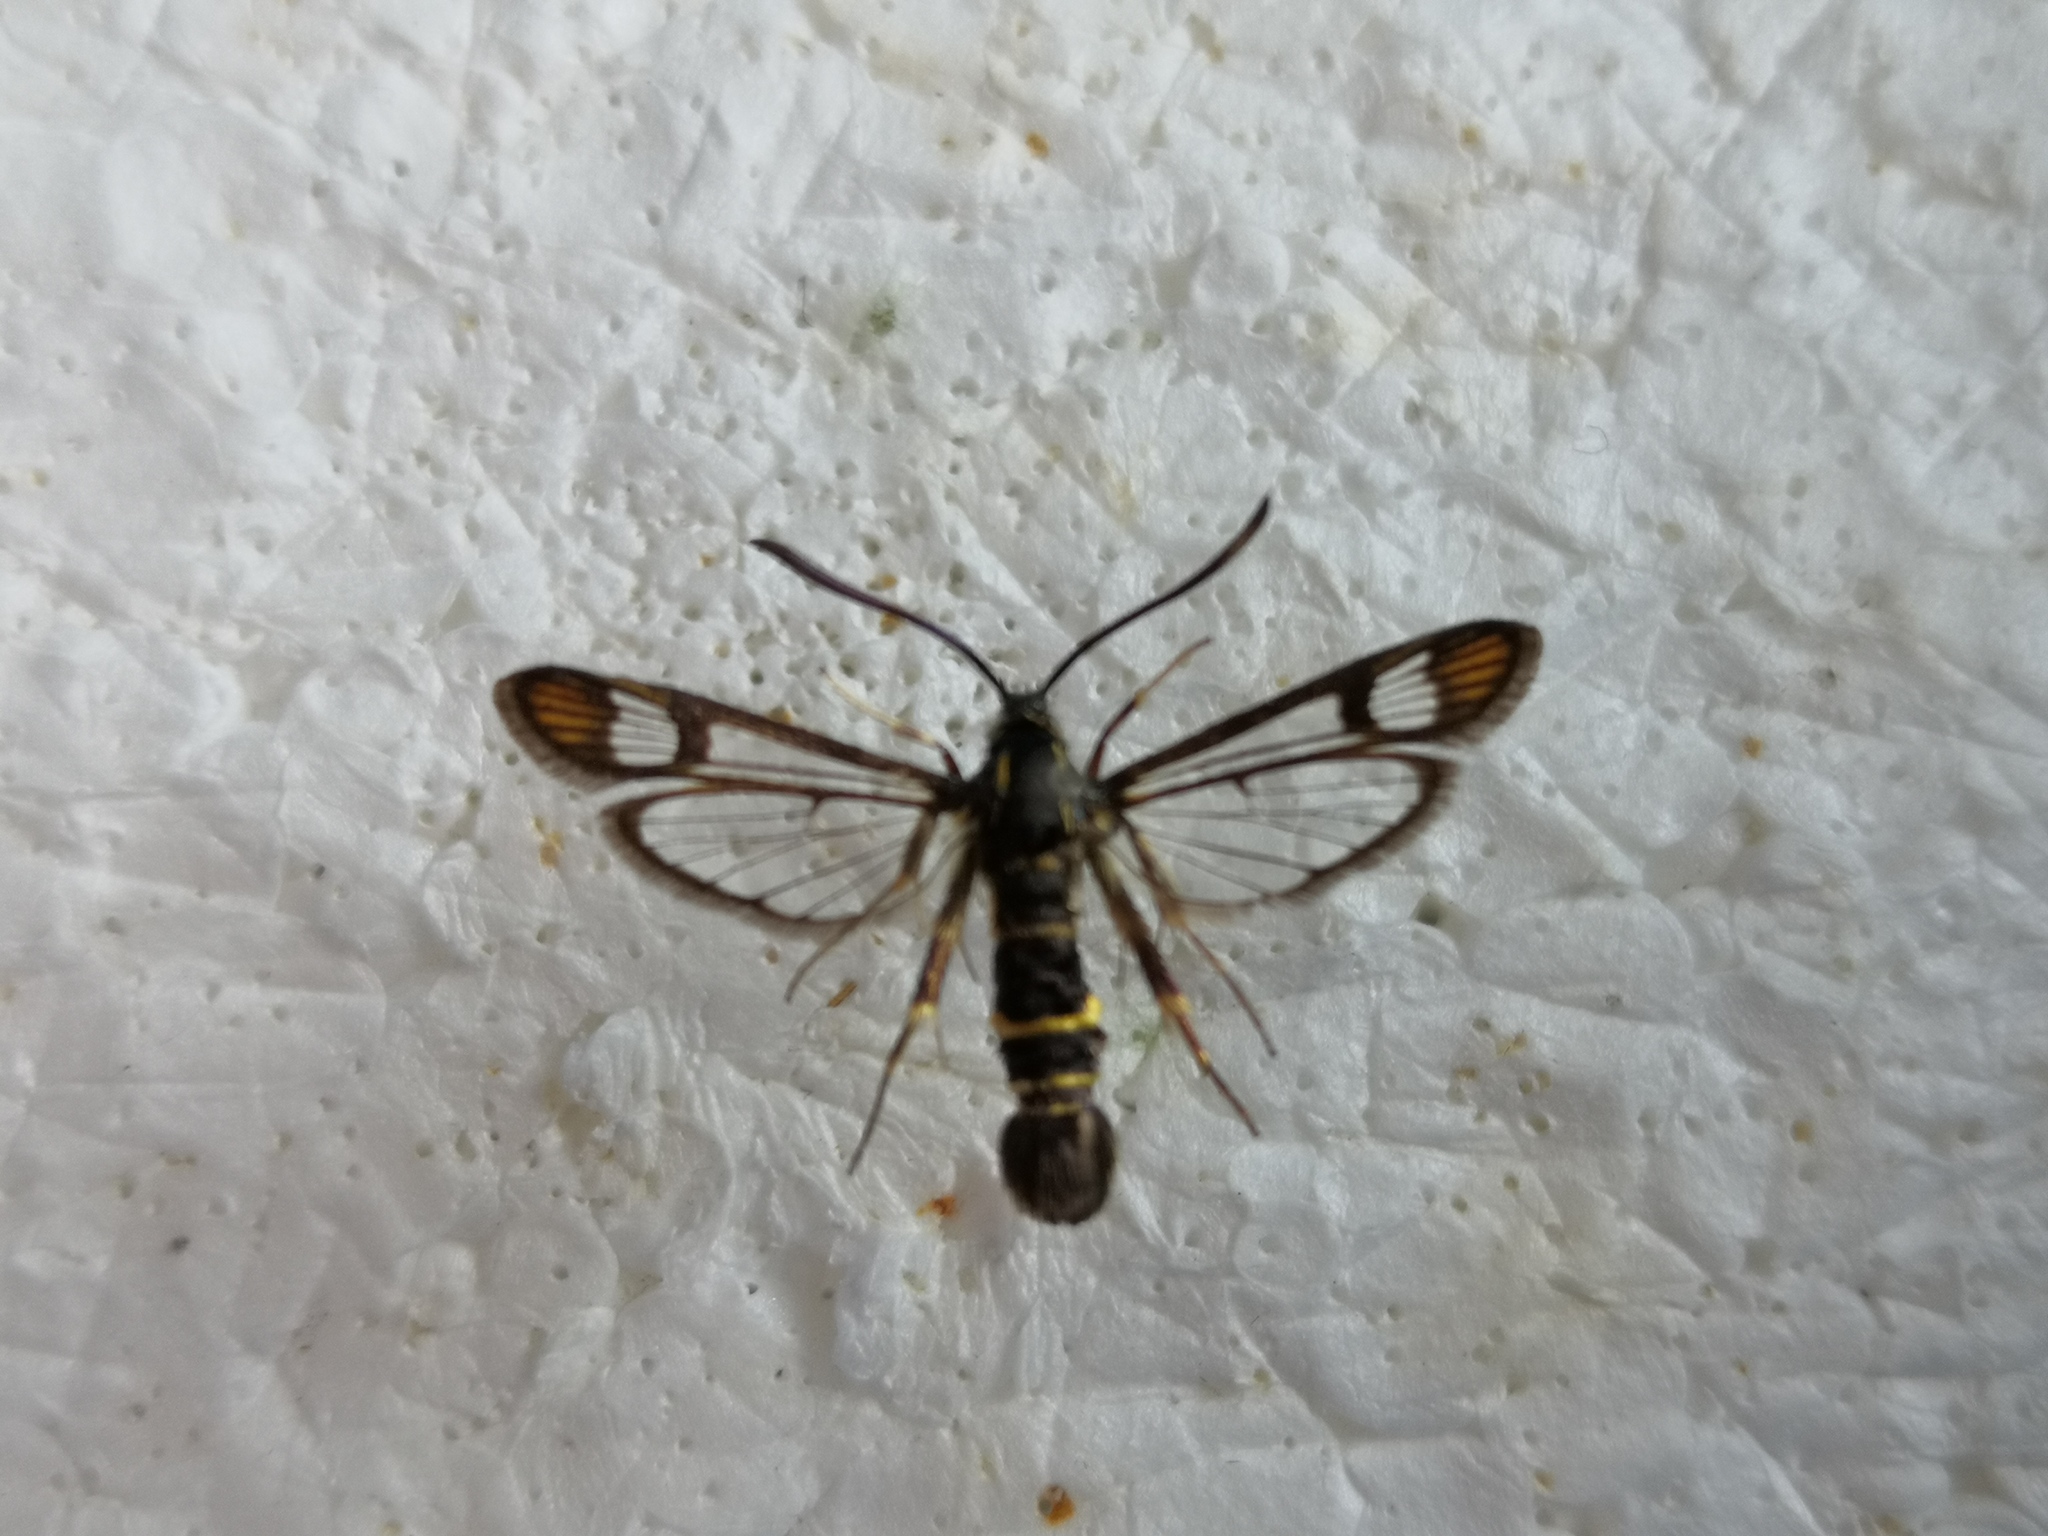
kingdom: Animalia
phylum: Arthropoda
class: Insecta
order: Lepidoptera
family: Sesiidae
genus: Synanthedon
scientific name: Synanthedon conopiformis
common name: Dale's oak clearwing
